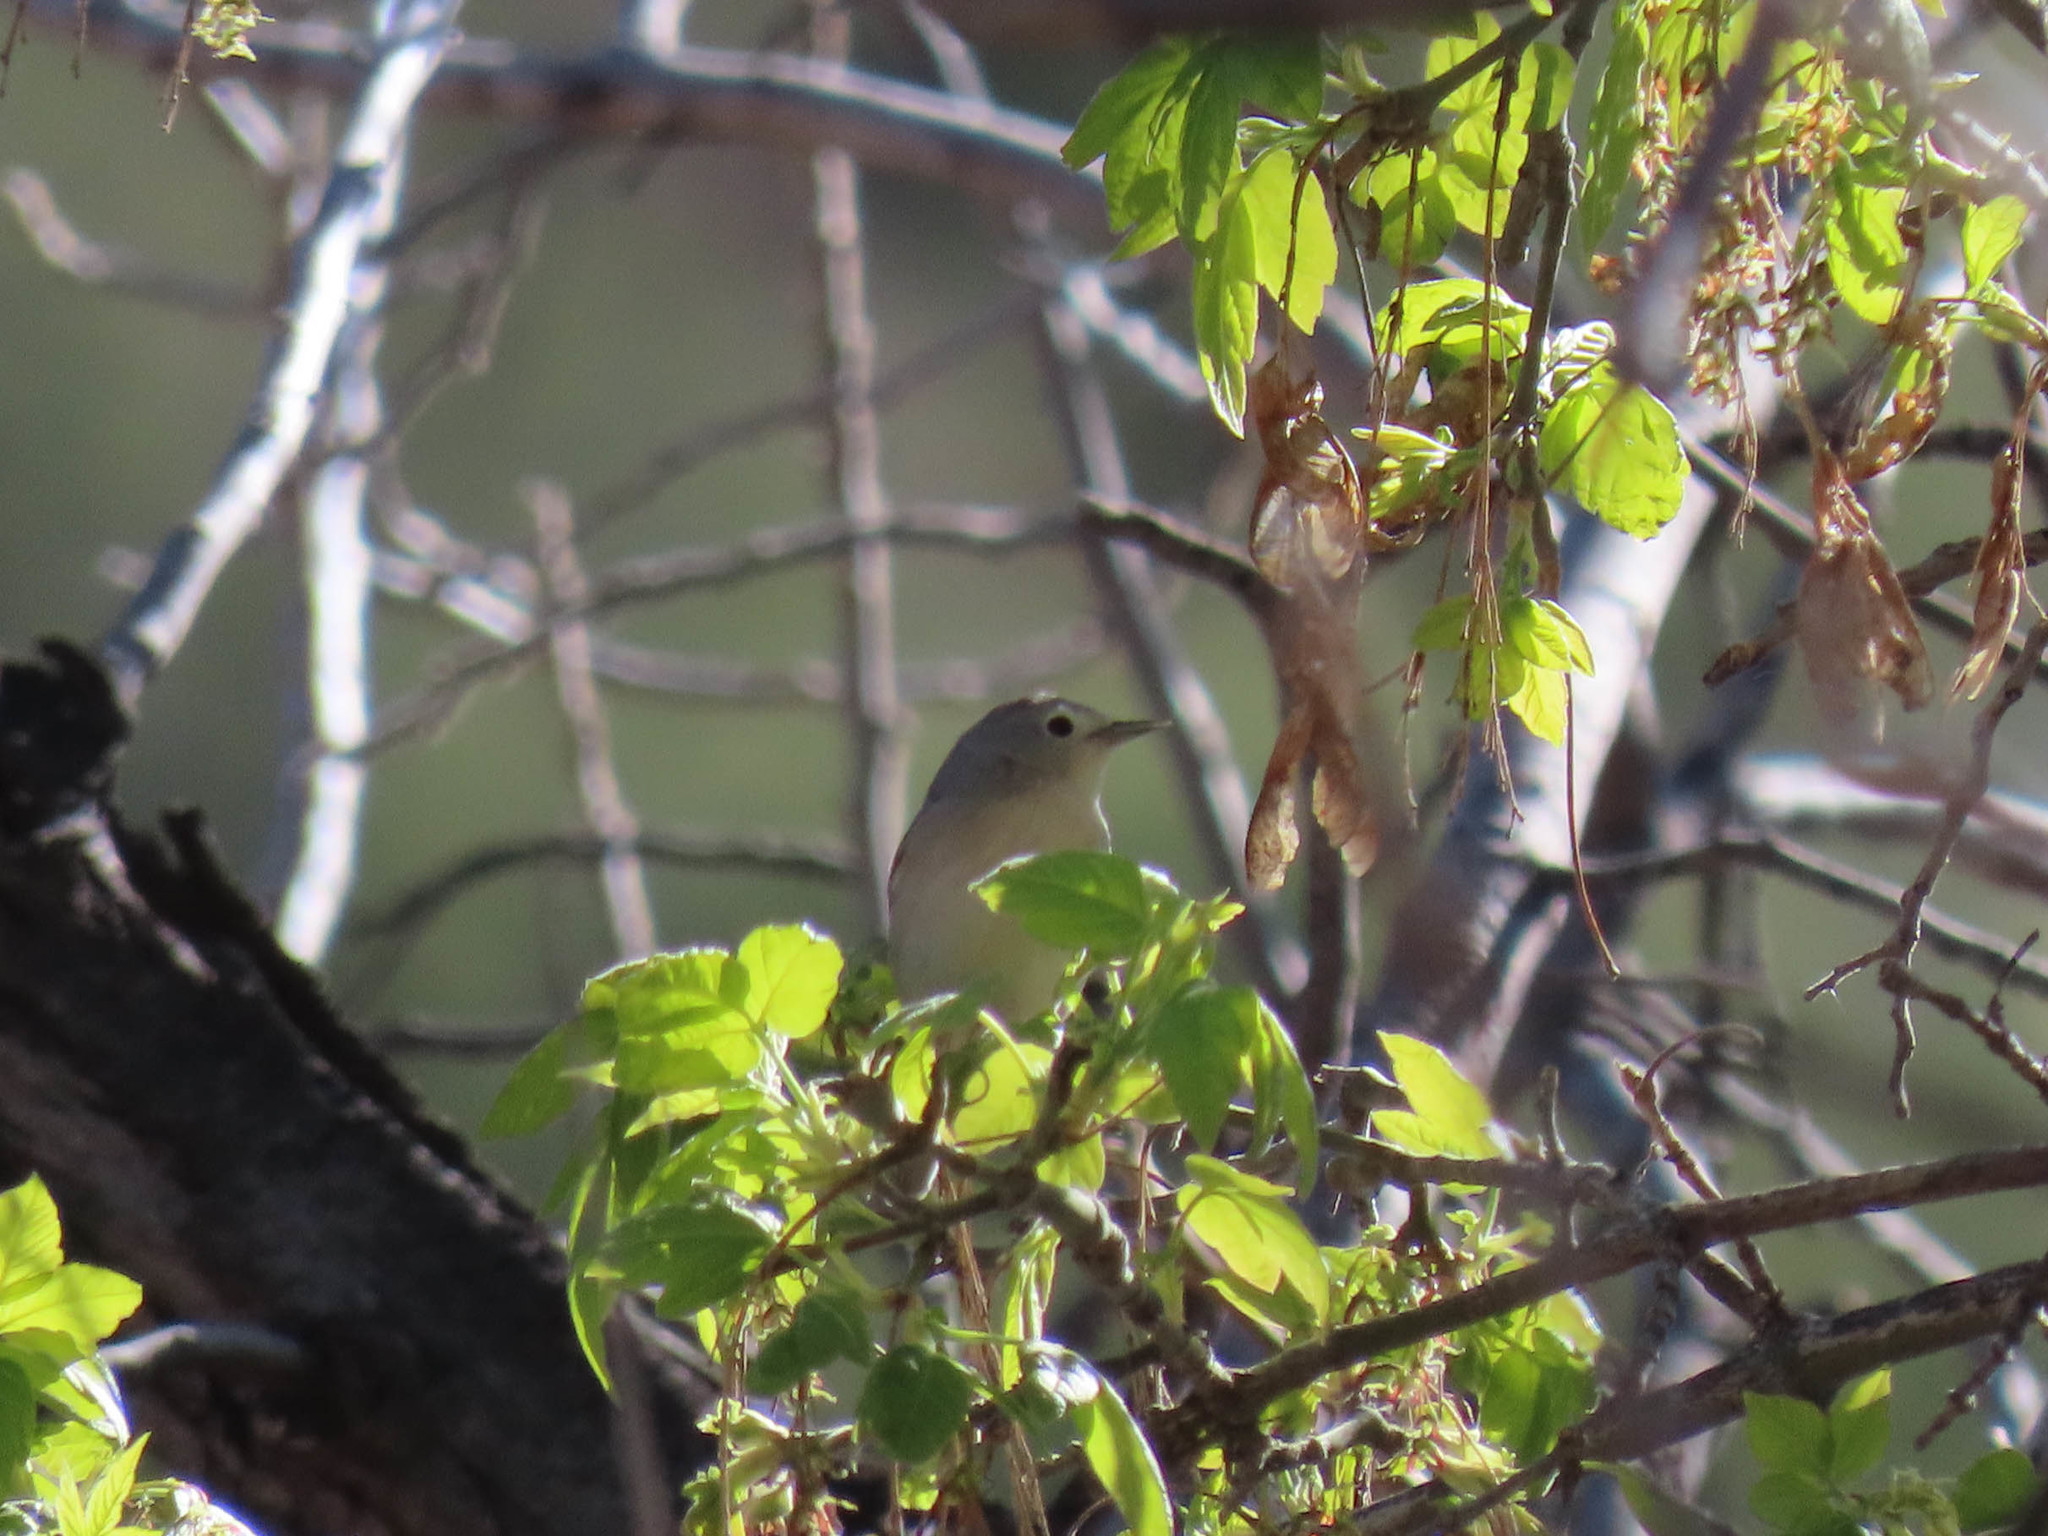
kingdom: Animalia
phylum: Chordata
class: Aves
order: Passeriformes
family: Parulidae
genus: Leiothlypis
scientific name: Leiothlypis luciae
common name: Lucy's warbler
